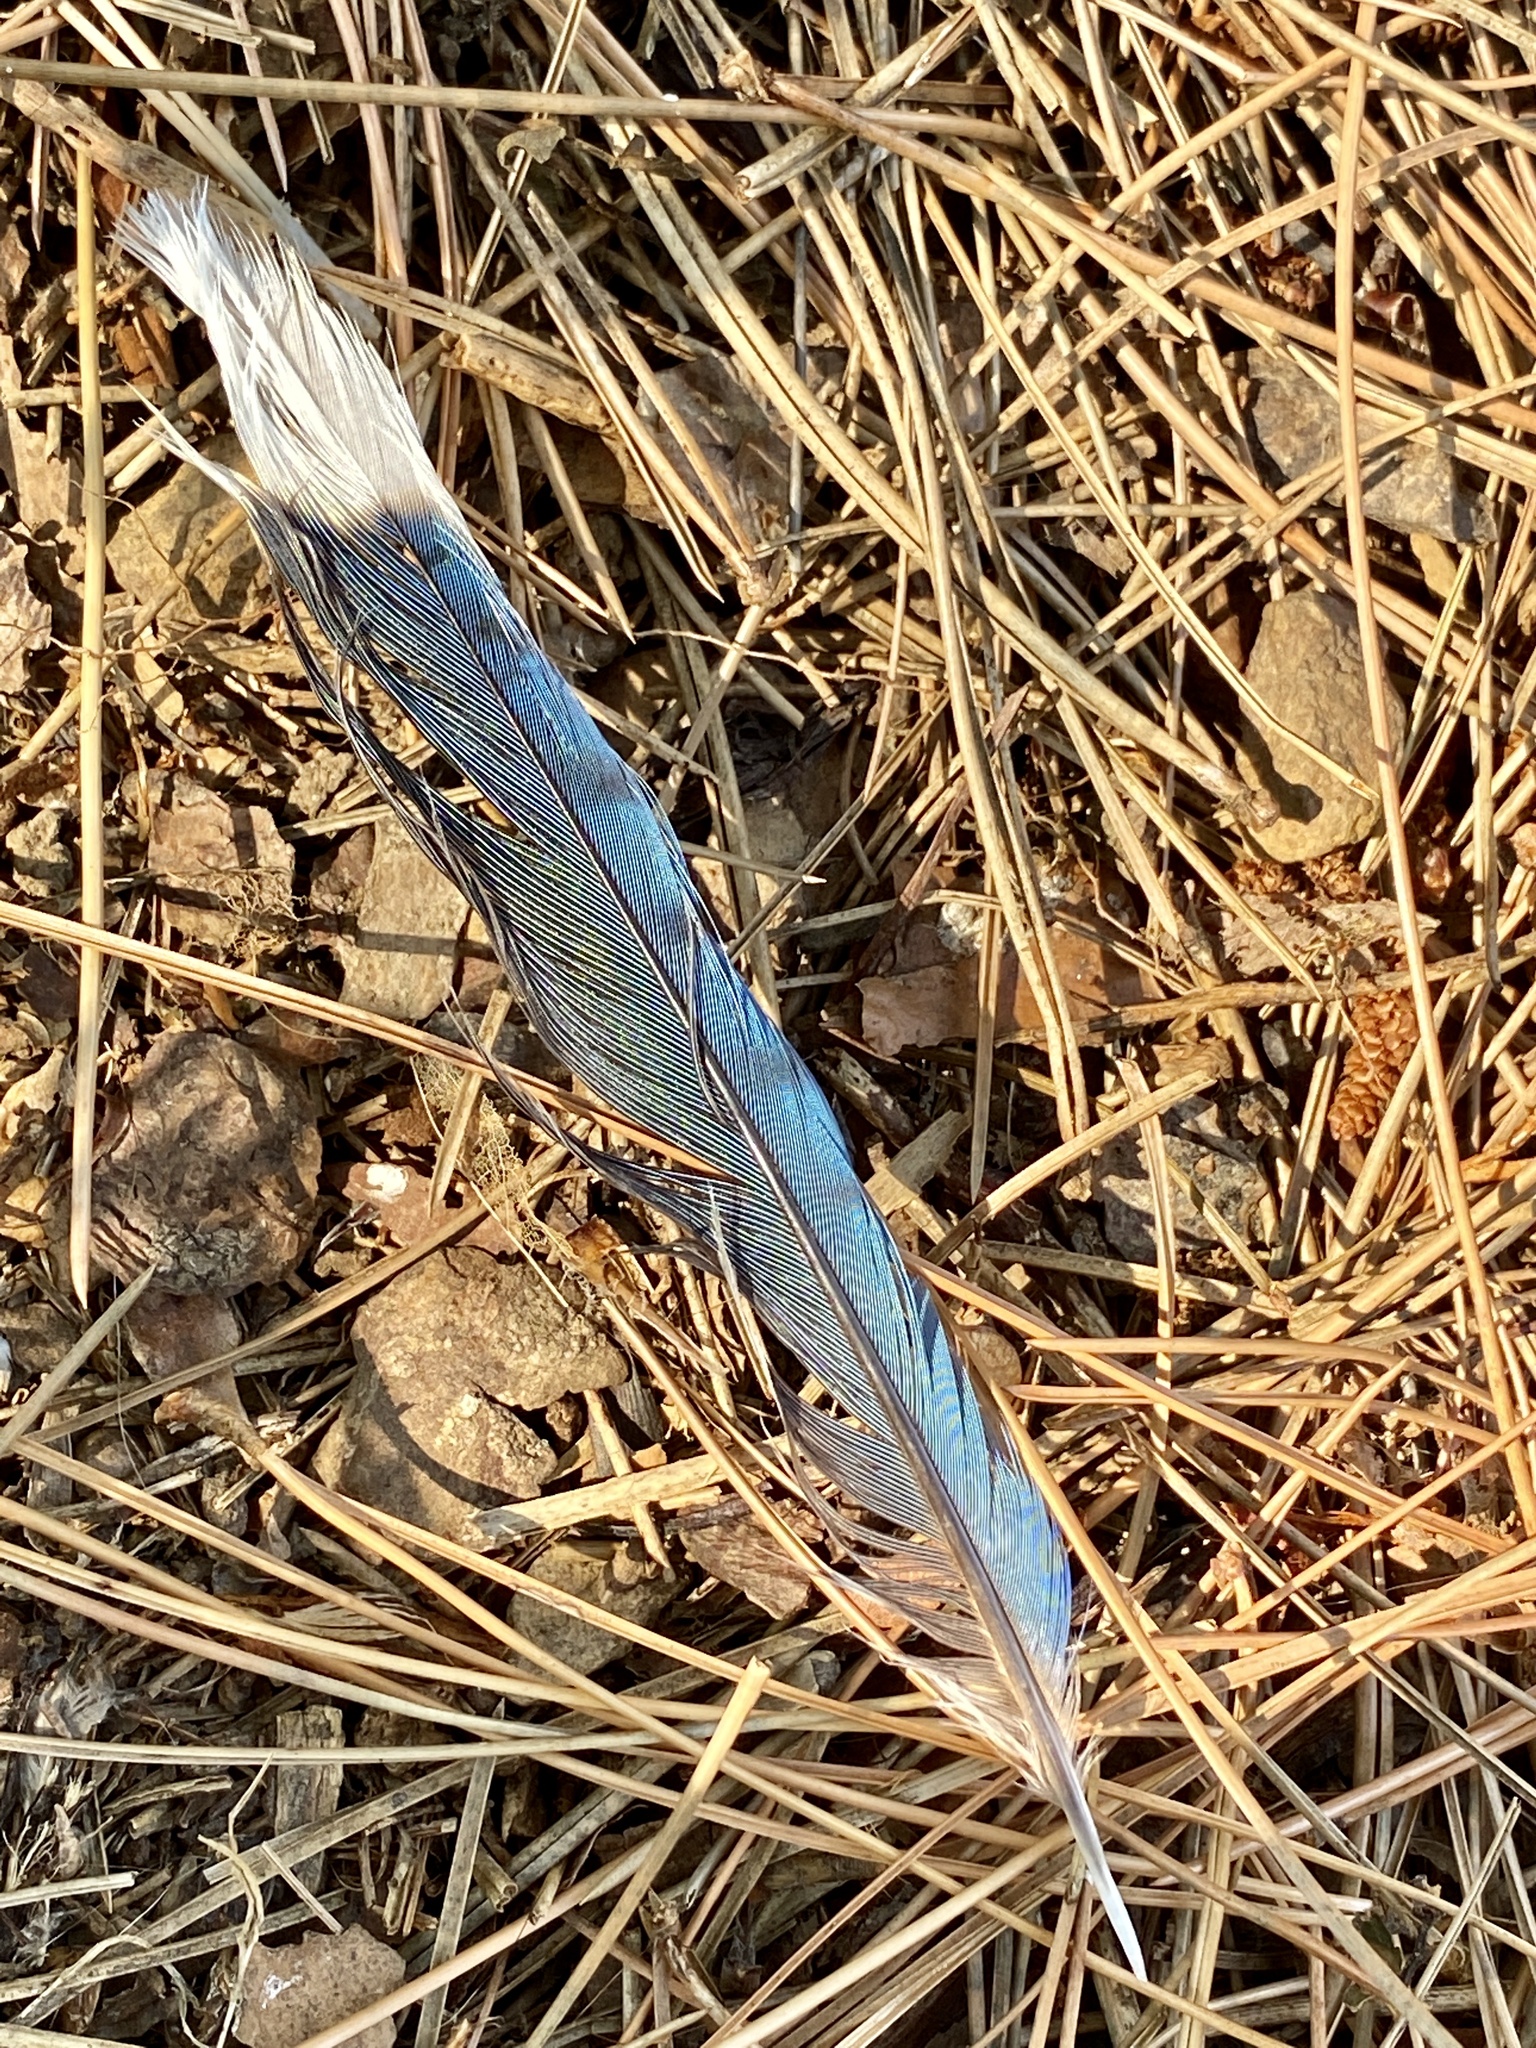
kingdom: Animalia
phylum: Chordata
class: Aves
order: Passeriformes
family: Corvidae
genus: Cyanocitta
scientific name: Cyanocitta cristata
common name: Blue jay
